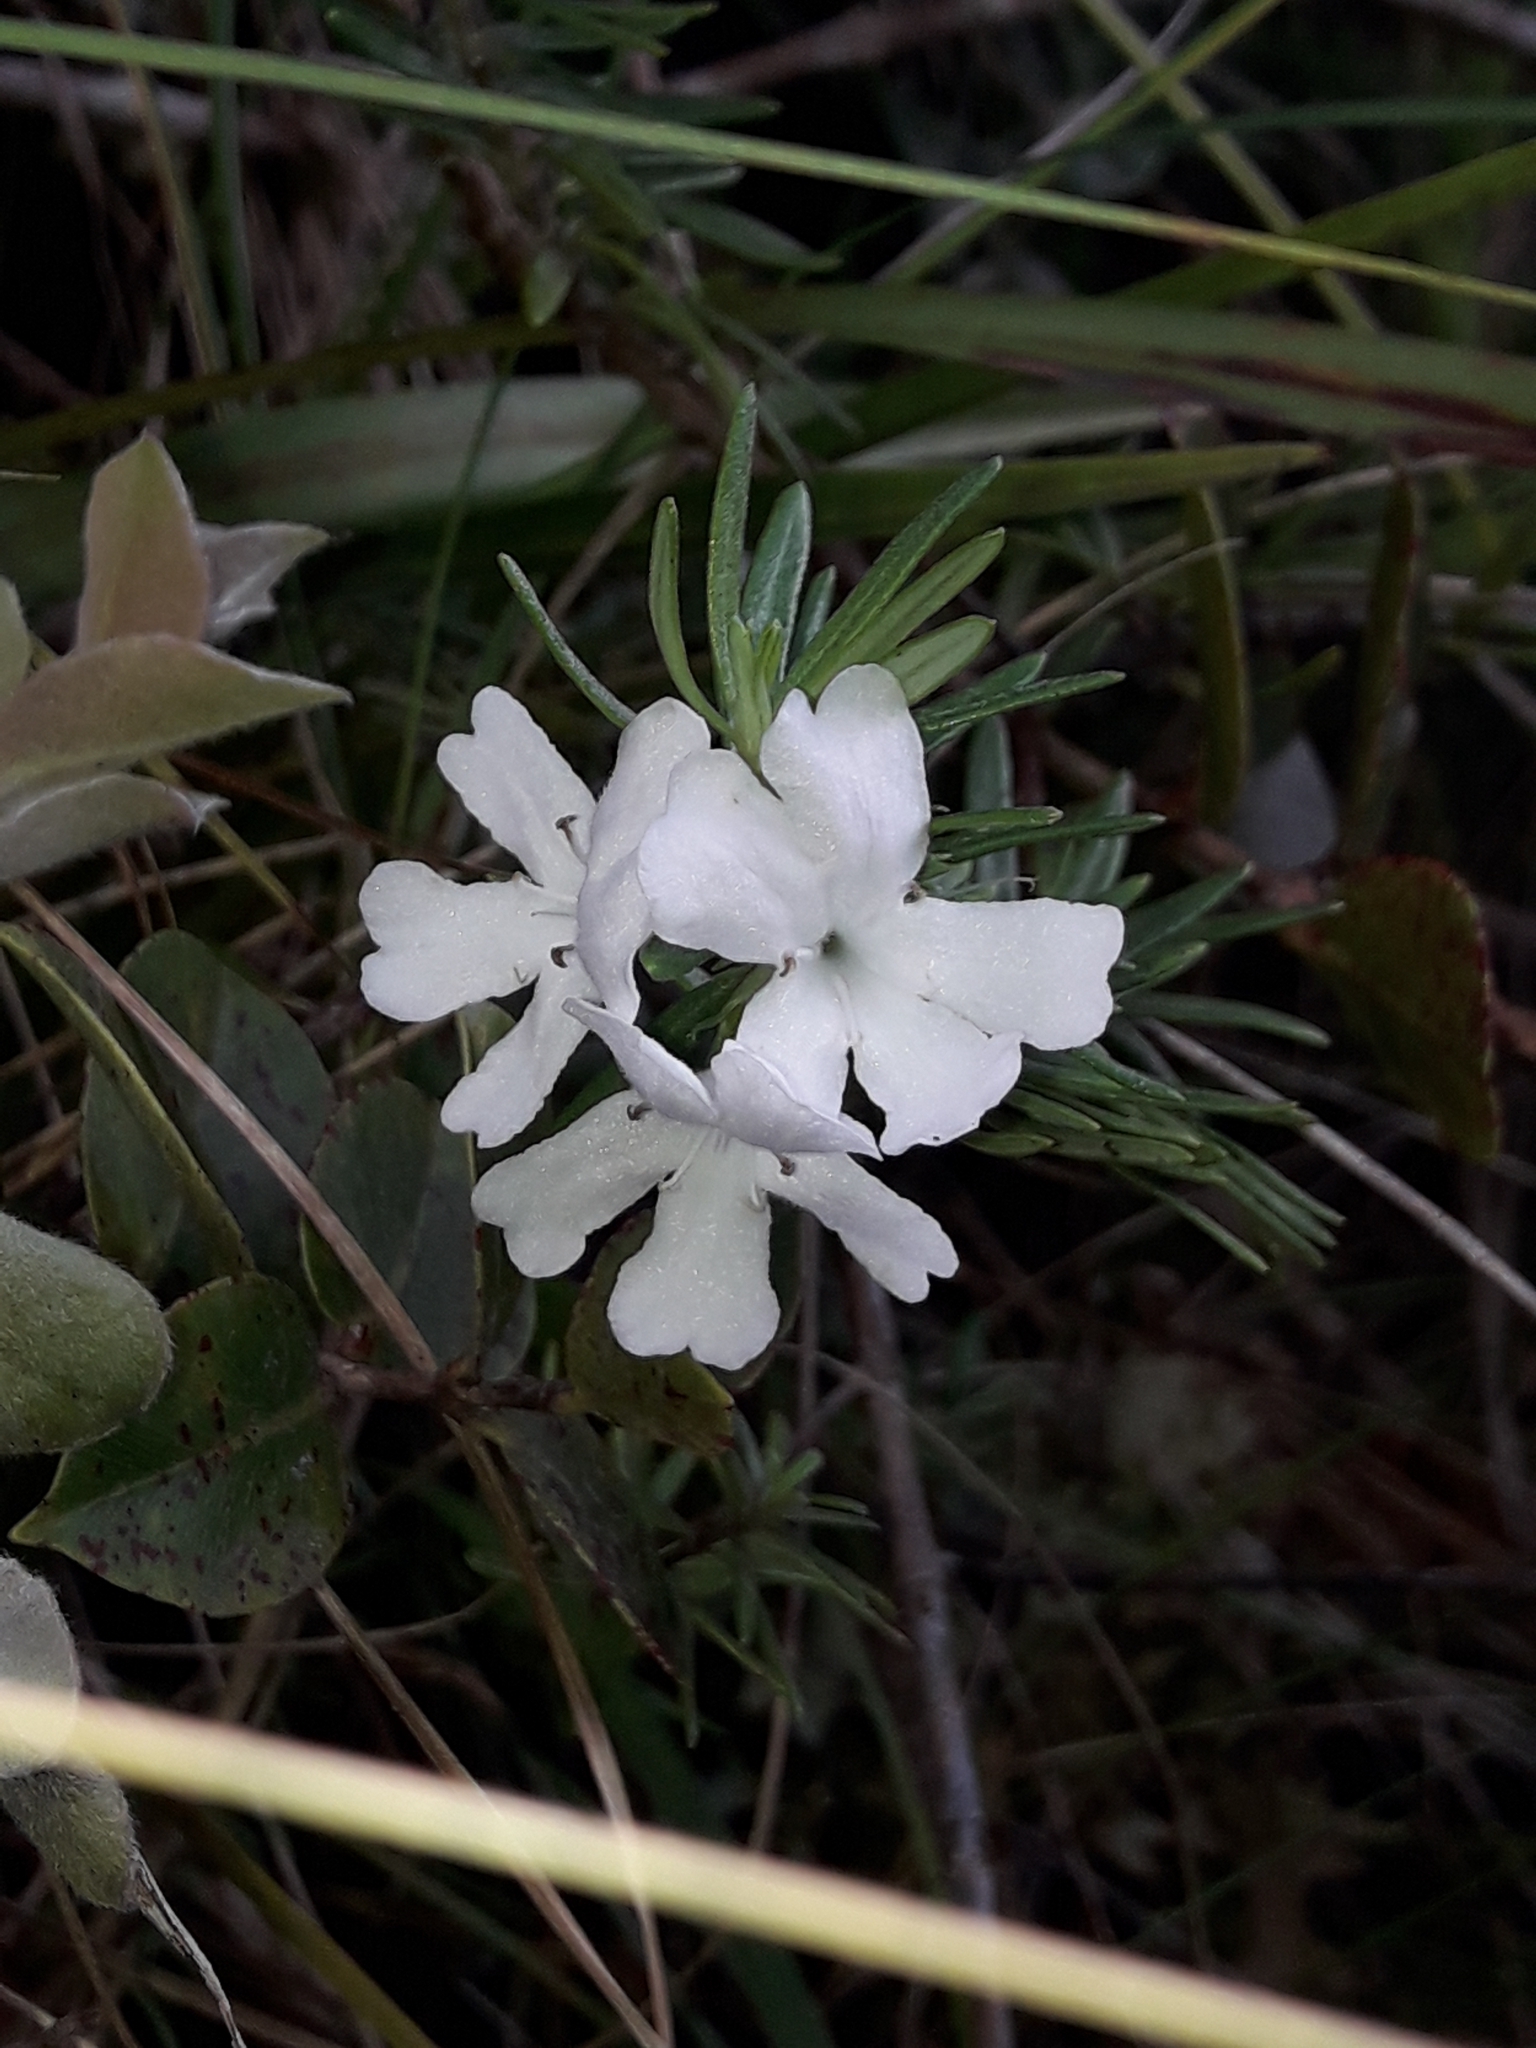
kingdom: Plantae
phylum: Tracheophyta
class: Magnoliopsida
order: Lamiales
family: Lamiaceae
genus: Westringia
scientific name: Westringia viminalis
